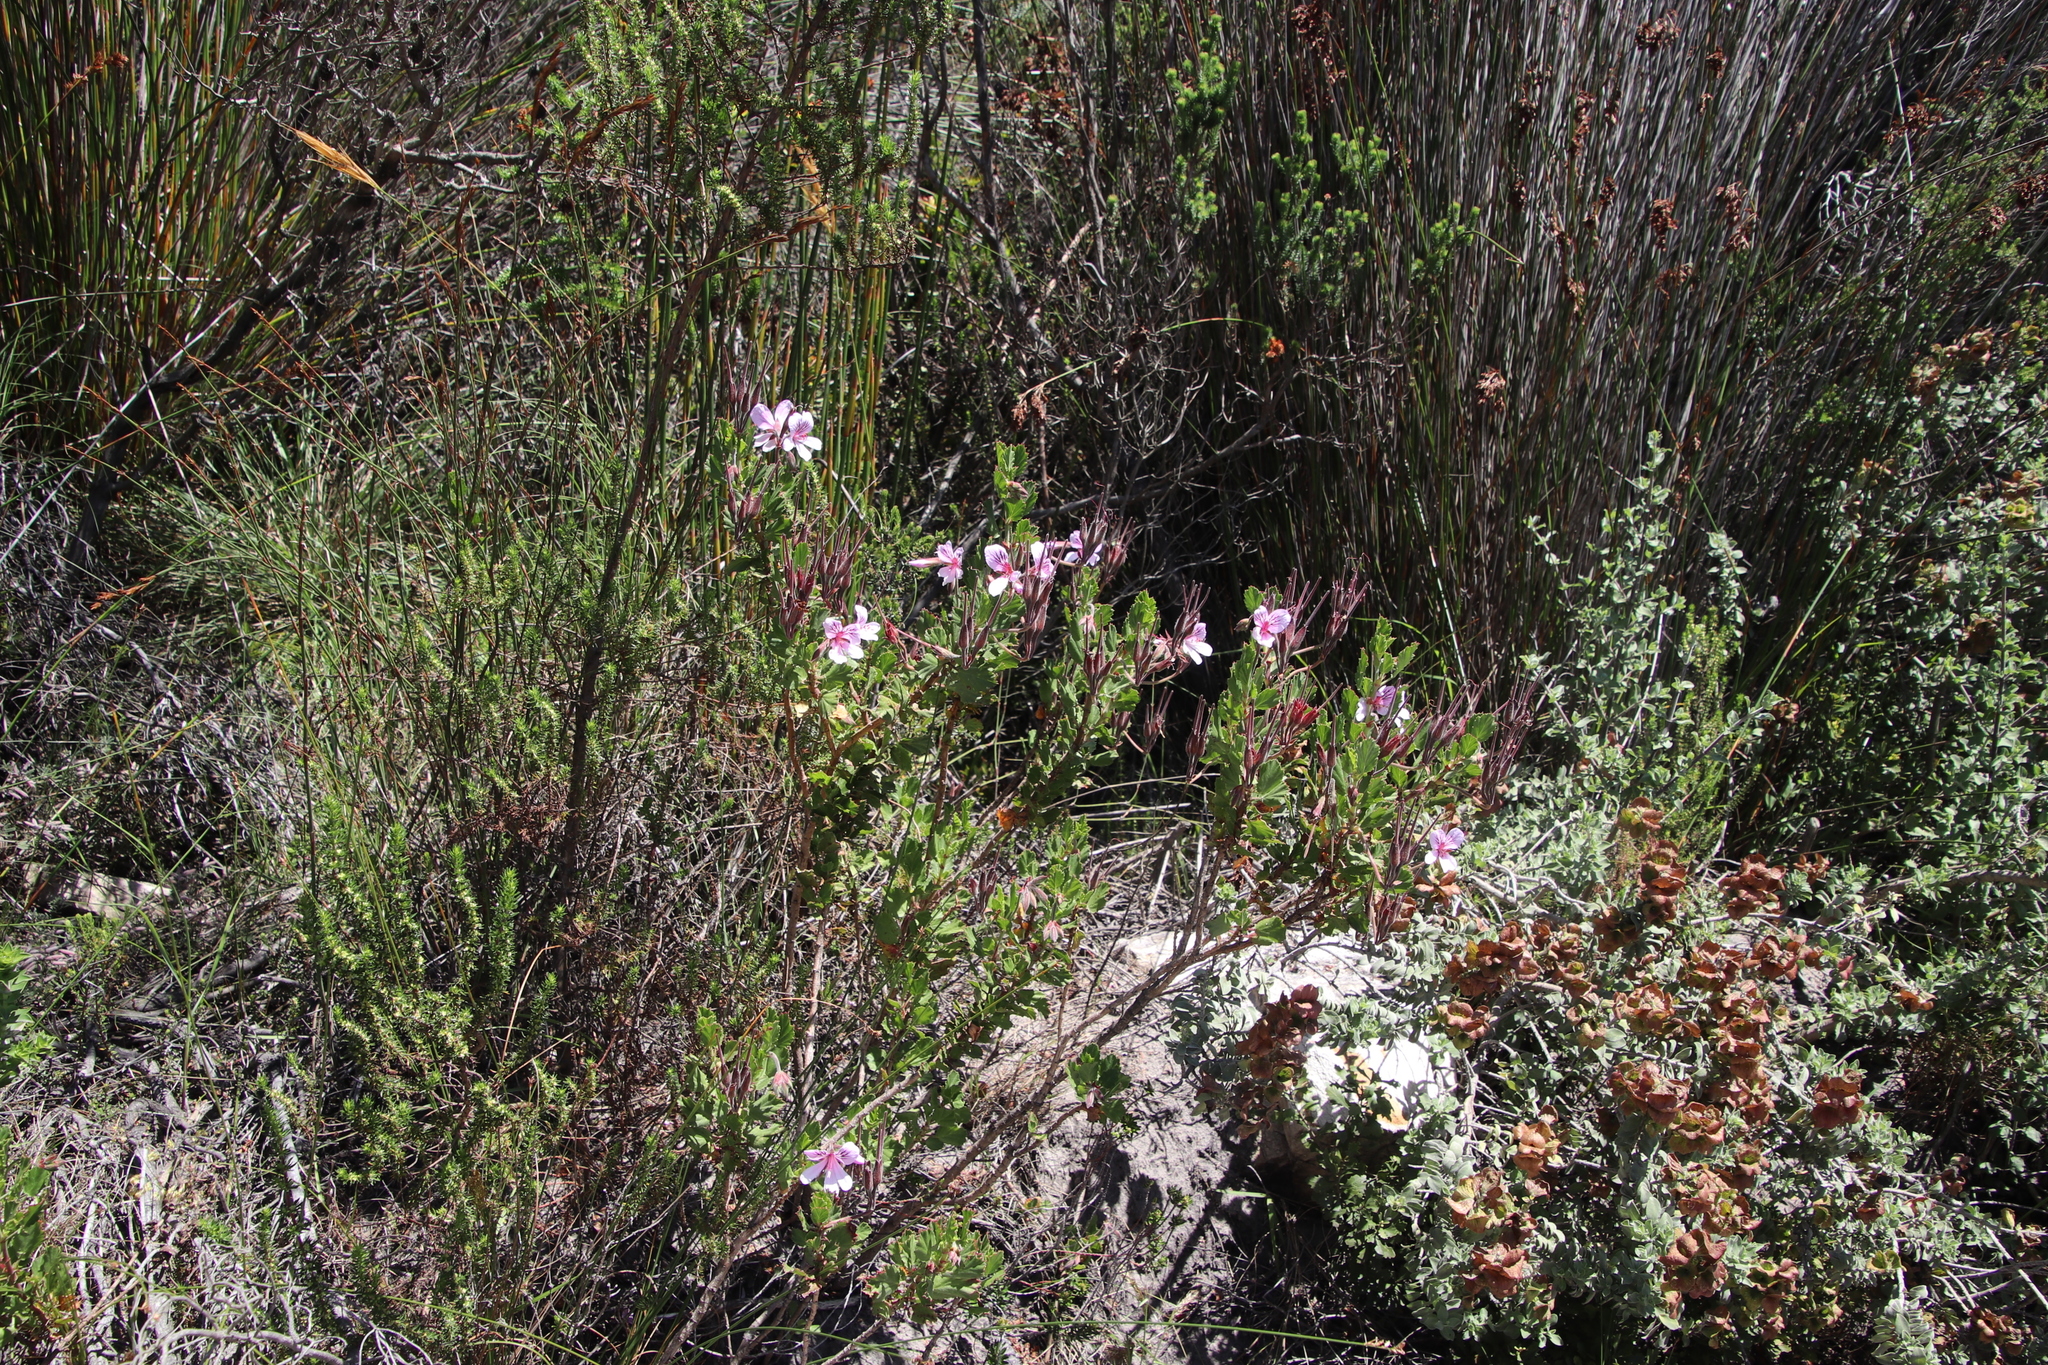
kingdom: Plantae
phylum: Tracheophyta
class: Magnoliopsida
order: Geraniales
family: Geraniaceae
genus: Pelargonium
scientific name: Pelargonium betulinum
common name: Birch-leaf pelargonium
